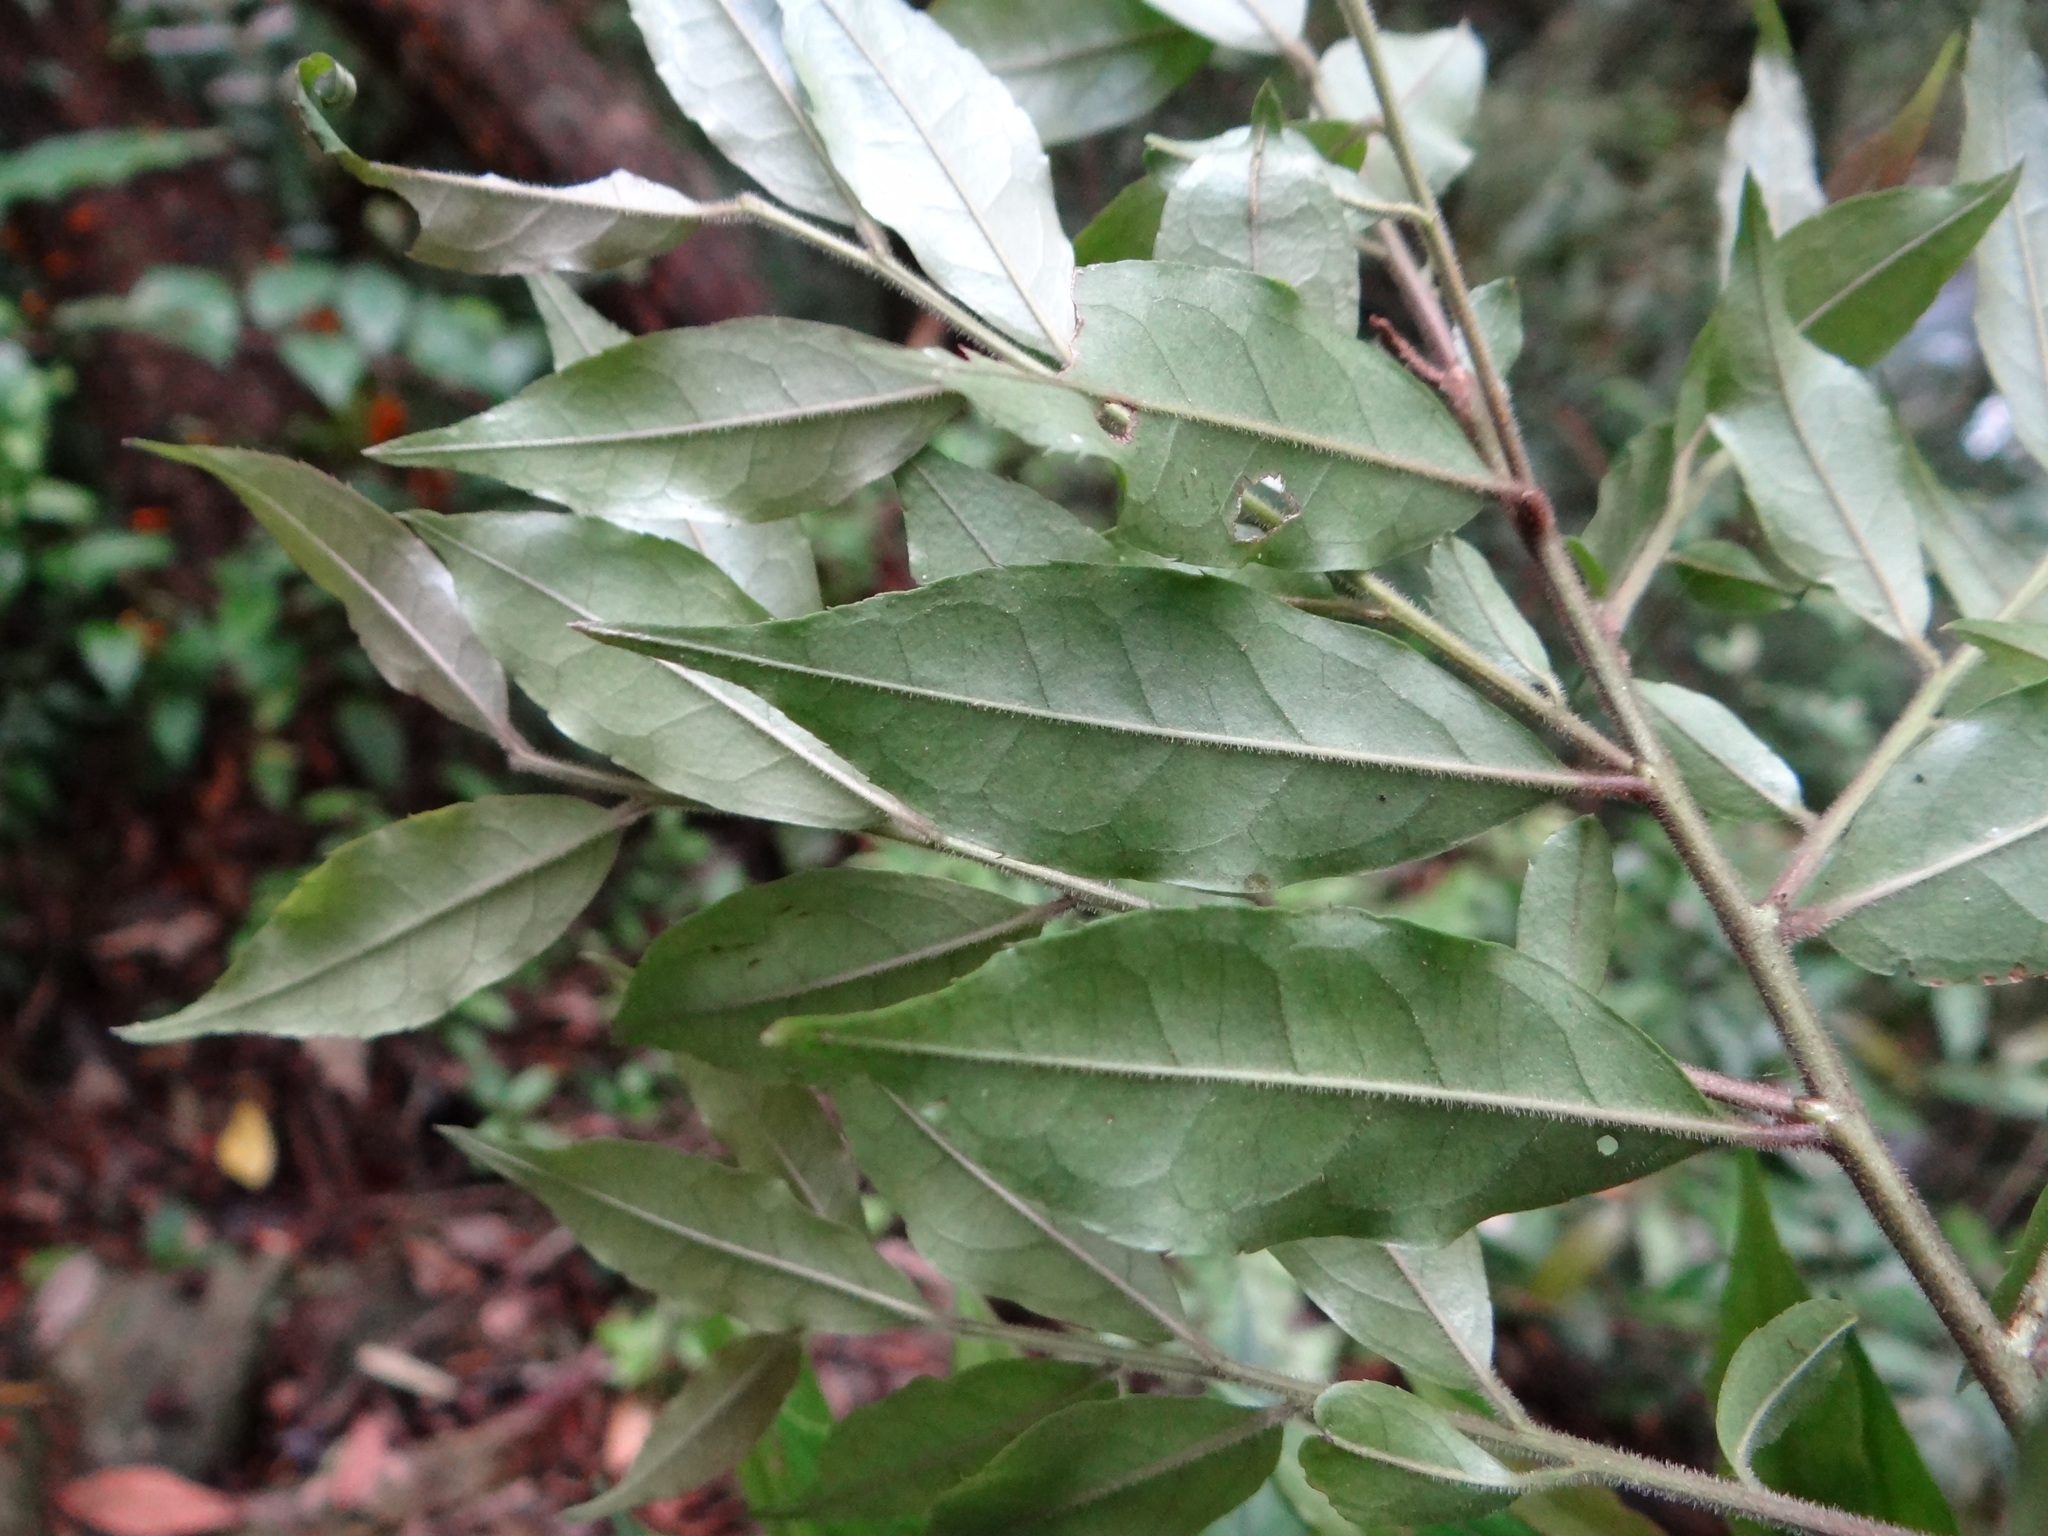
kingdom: Plantae
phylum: Tracheophyta
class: Magnoliopsida
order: Aquifoliales
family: Aquifoliaceae
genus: Ilex
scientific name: Ilex pubescens
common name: Pubescent holly
